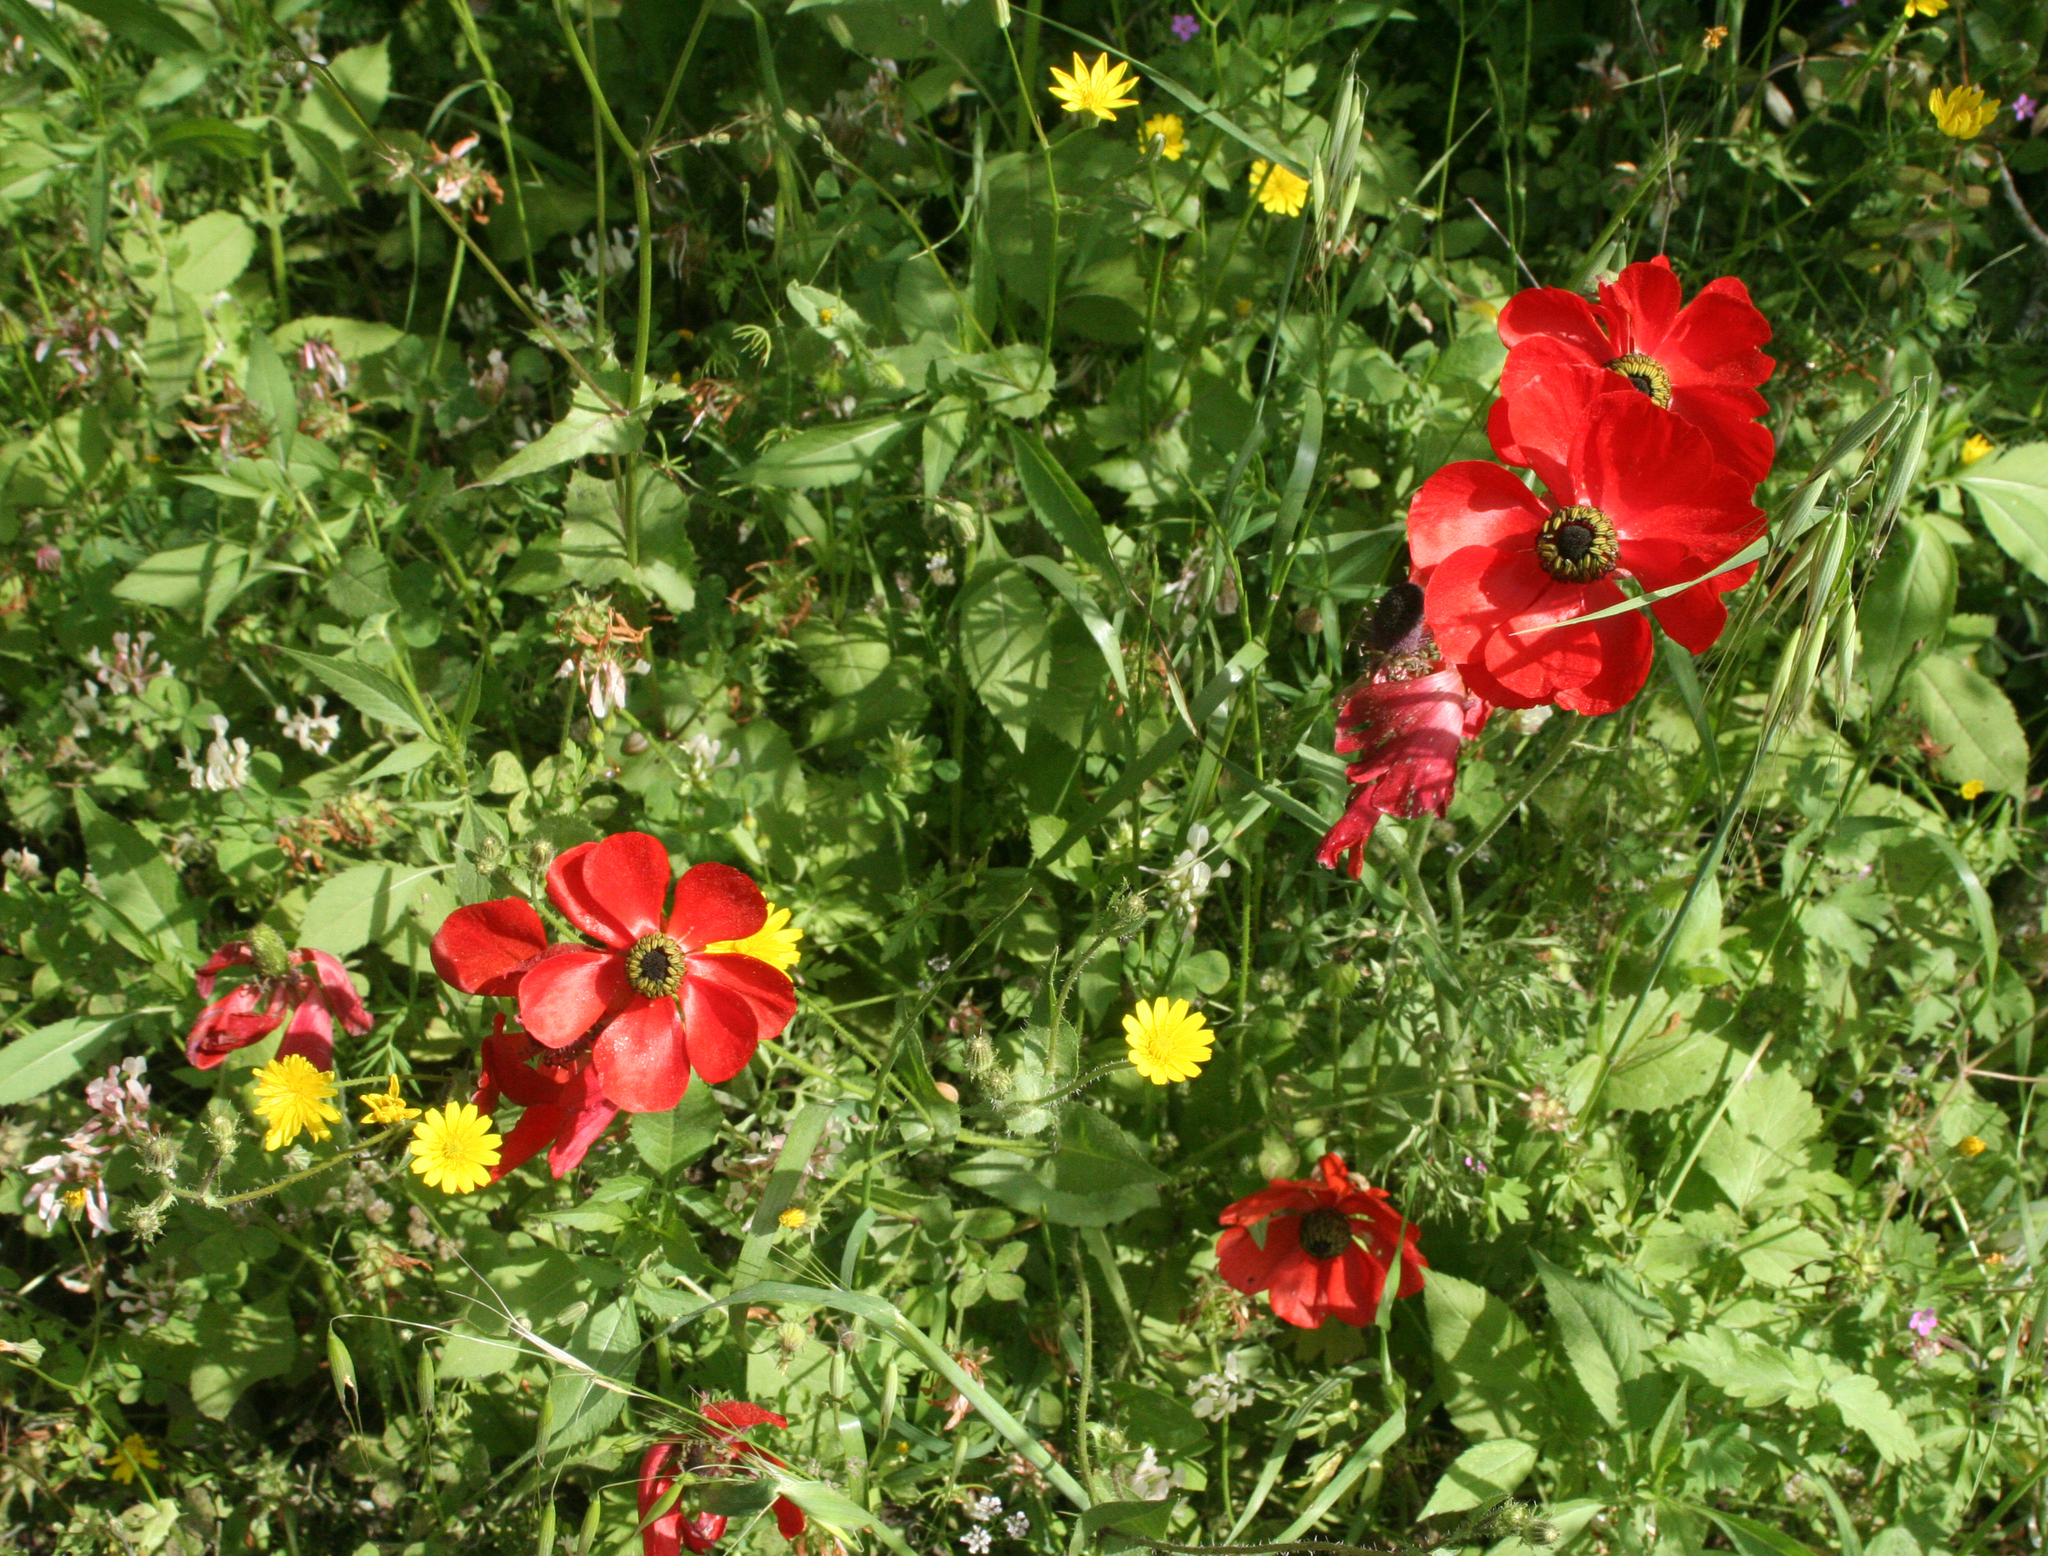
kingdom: Plantae
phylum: Tracheophyta
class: Magnoliopsida
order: Ranunculales
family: Ranunculaceae
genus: Ranunculus
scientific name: Ranunculus asiaticus
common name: Persian buttercup
